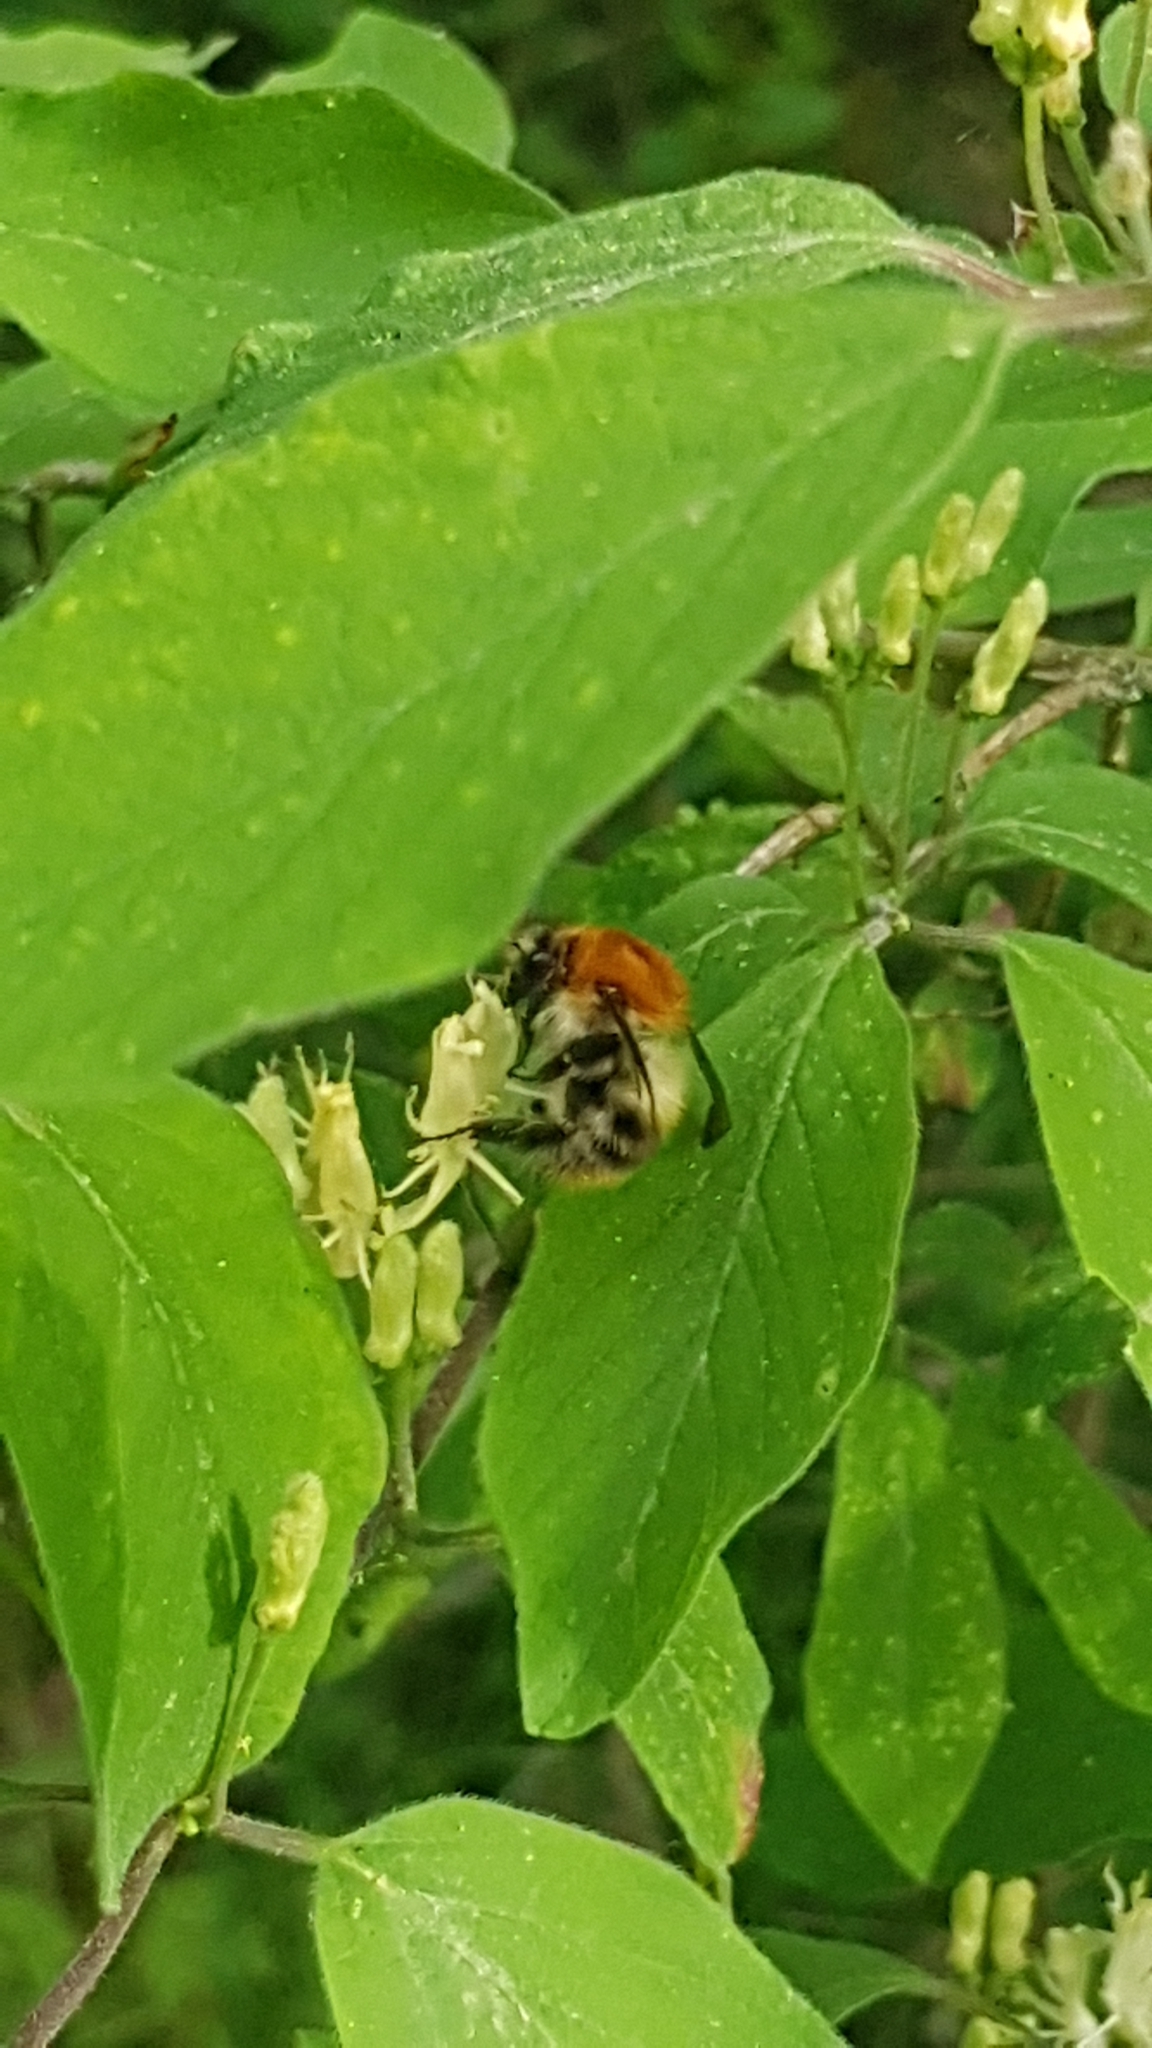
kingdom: Animalia
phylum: Arthropoda
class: Insecta
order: Hymenoptera
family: Apidae
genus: Bombus
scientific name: Bombus pascuorum
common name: Common carder bee
